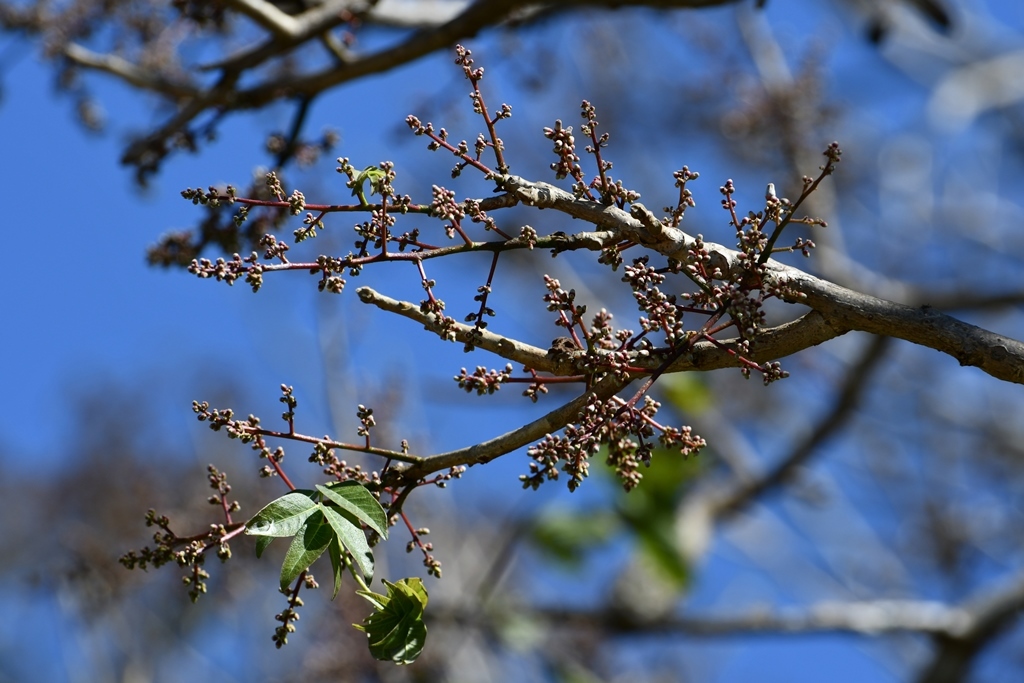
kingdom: Plantae
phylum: Tracheophyta
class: Magnoliopsida
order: Sapindales
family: Meliaceae
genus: Cedrela
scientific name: Cedrela salvadorensis
